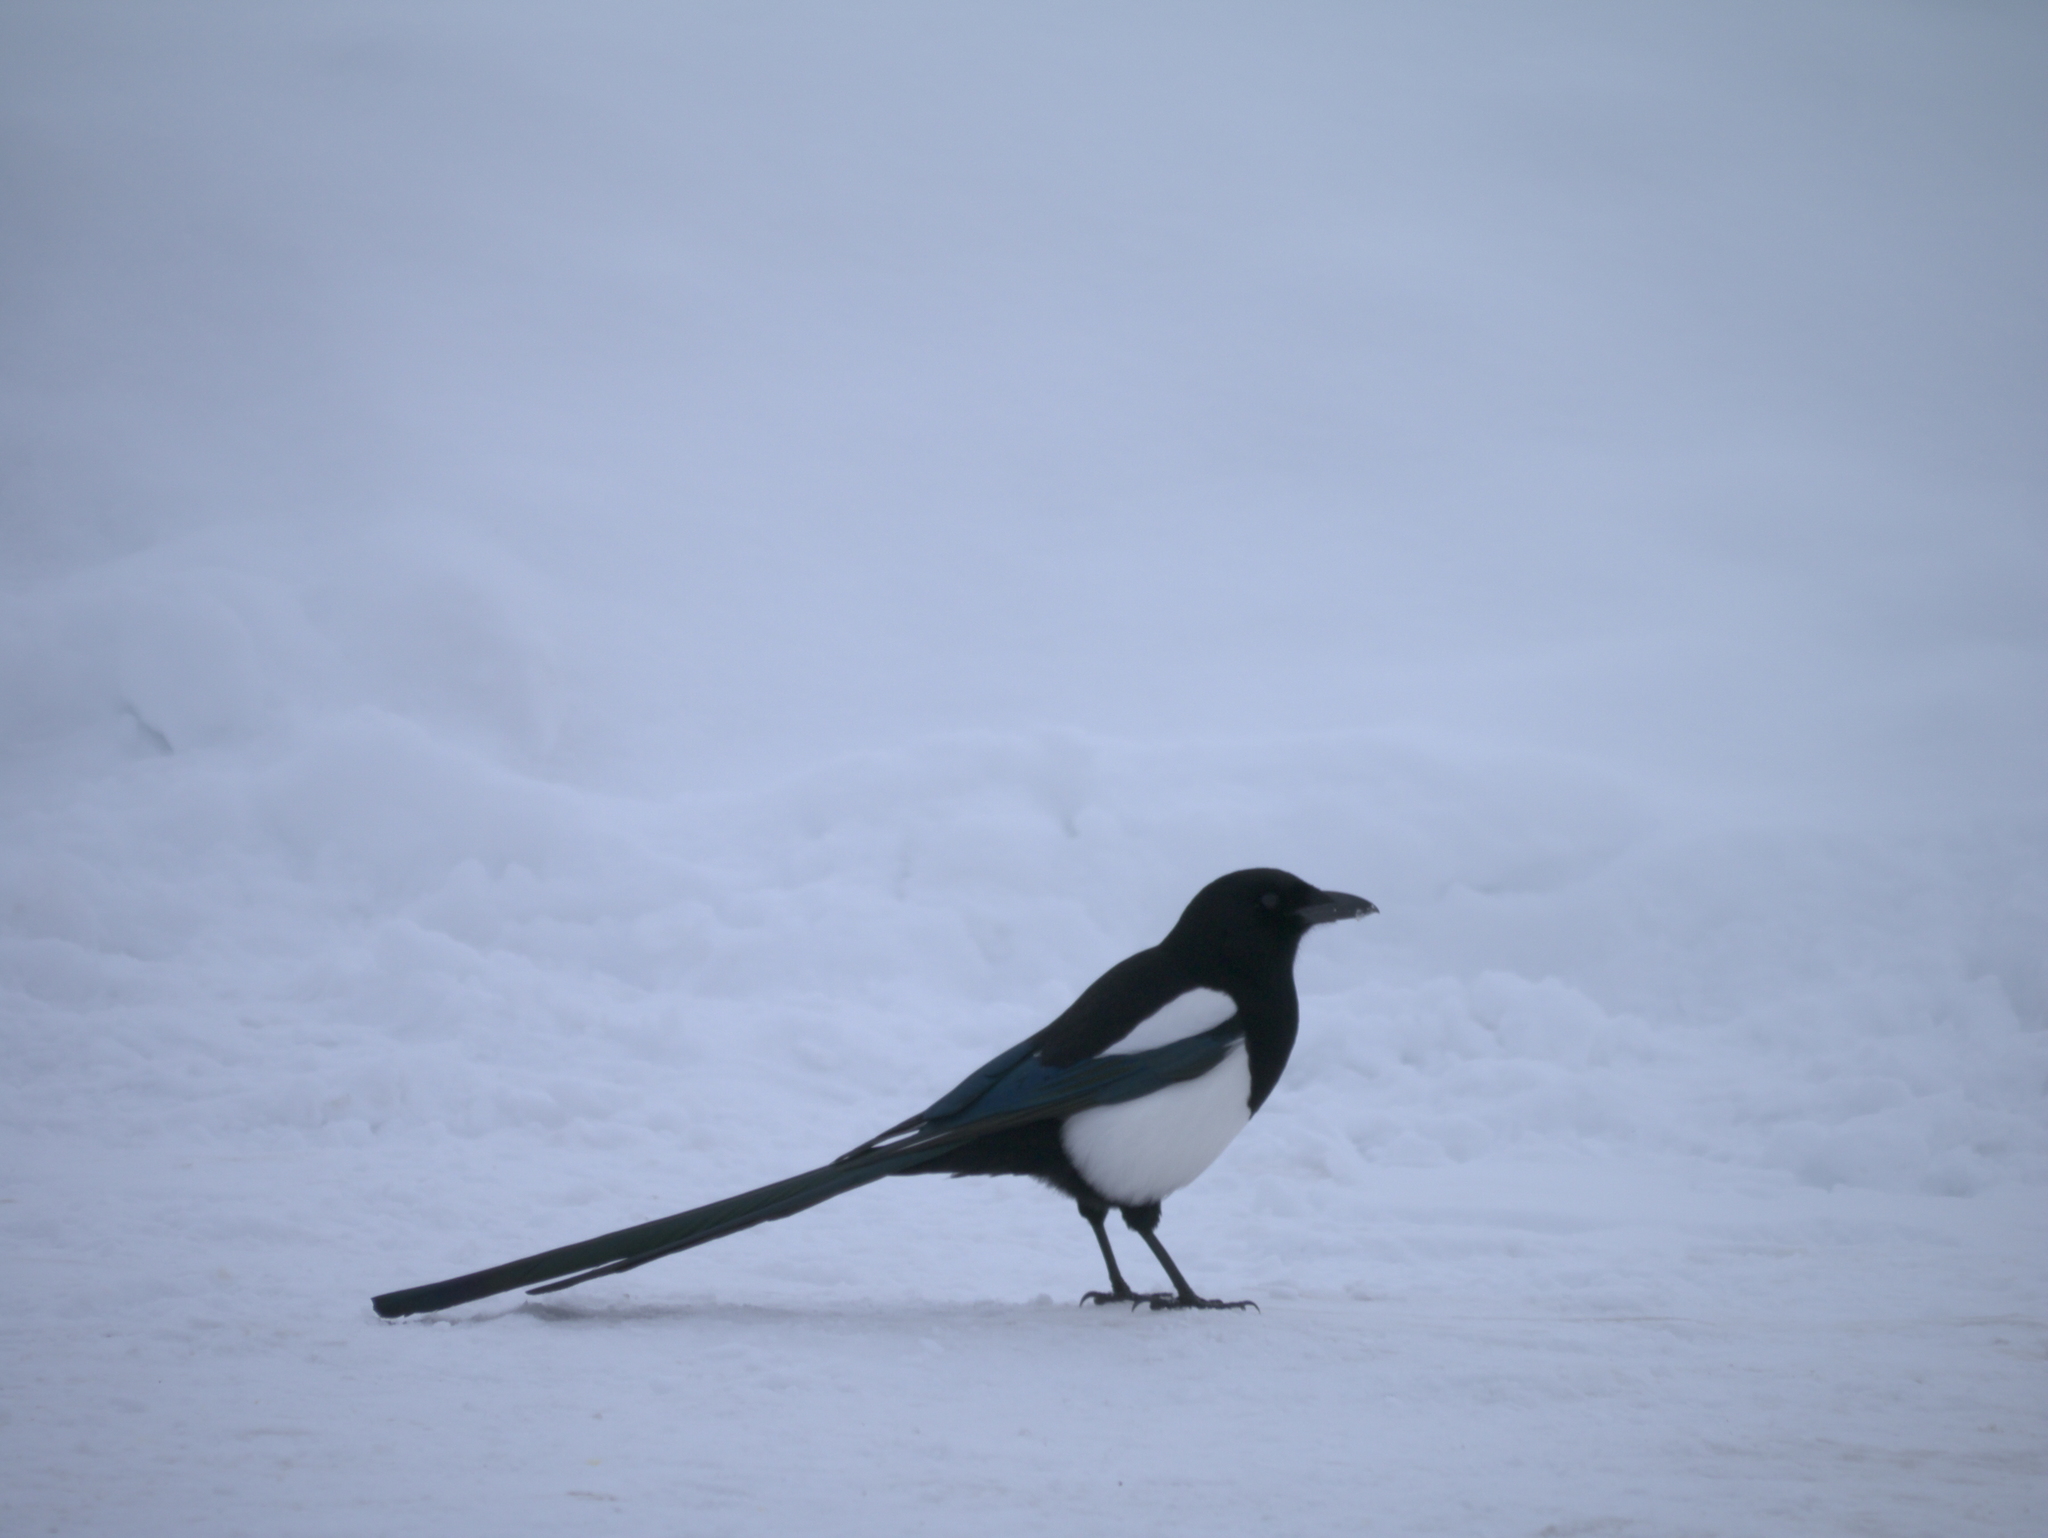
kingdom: Animalia
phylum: Chordata
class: Aves
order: Passeriformes
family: Corvidae
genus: Pica
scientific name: Pica hudsonia
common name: Black-billed magpie
